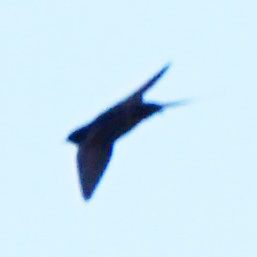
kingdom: Animalia
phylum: Chordata
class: Aves
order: Passeriformes
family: Hirundinidae
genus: Hirundo
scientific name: Hirundo rustica
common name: Barn swallow
